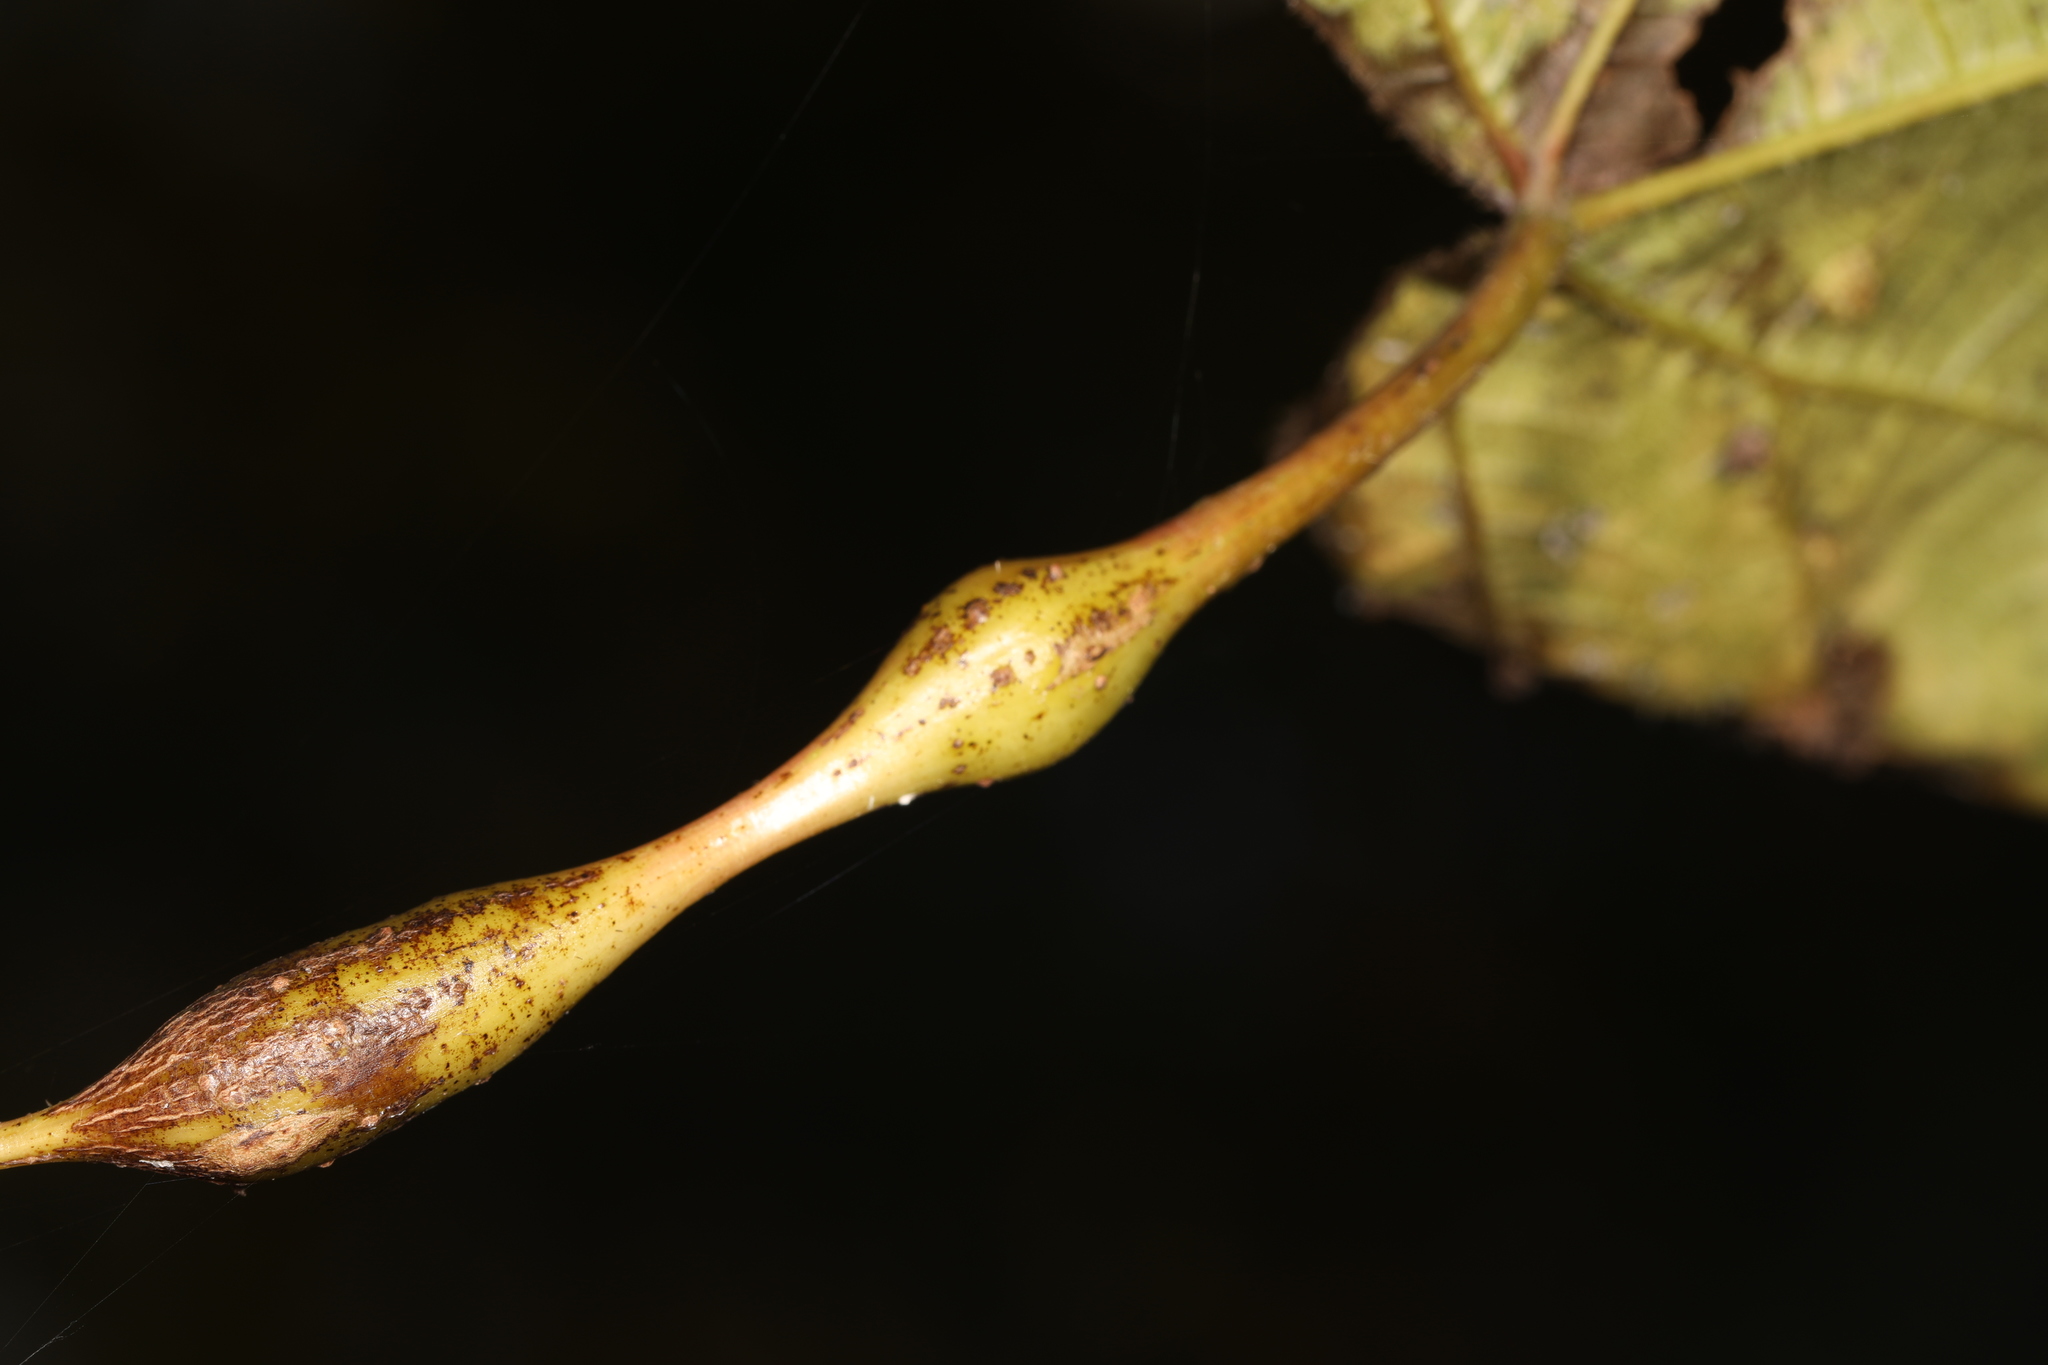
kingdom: Animalia
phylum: Arthropoda
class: Insecta
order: Diptera
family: Cecidomyiidae
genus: Neolasioptera
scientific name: Neolasioptera vitinea
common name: Grape leaf petiole gall
